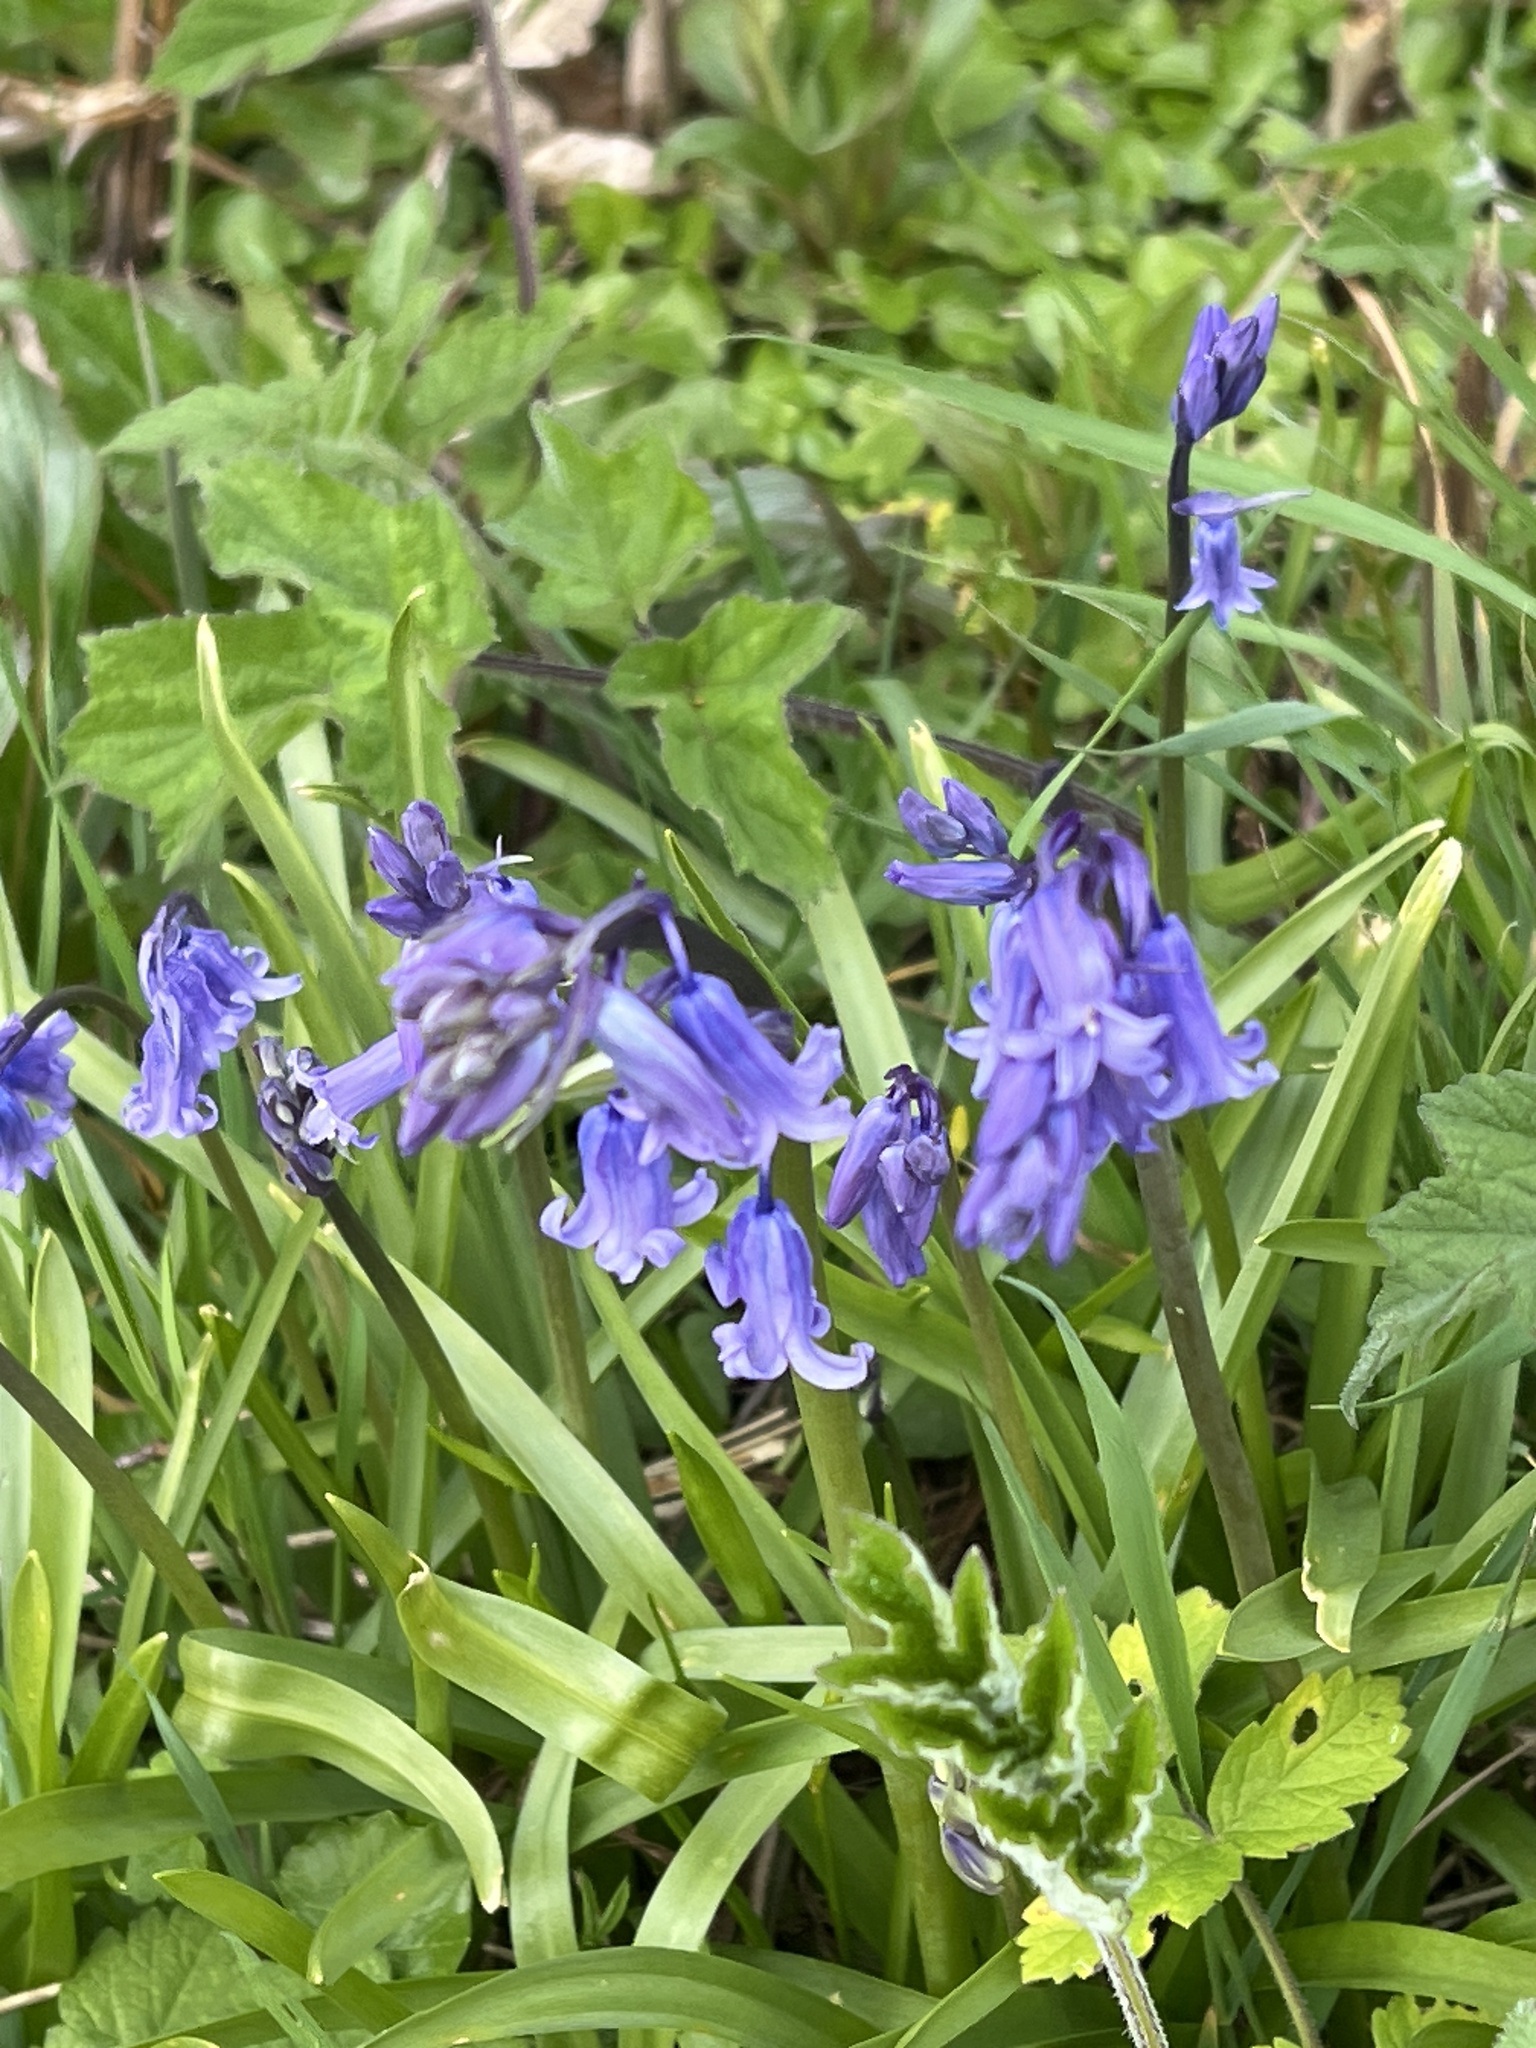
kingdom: Plantae
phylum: Tracheophyta
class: Liliopsida
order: Asparagales
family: Asparagaceae
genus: Hyacinthoides
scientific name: Hyacinthoides non-scripta
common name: Bluebell
